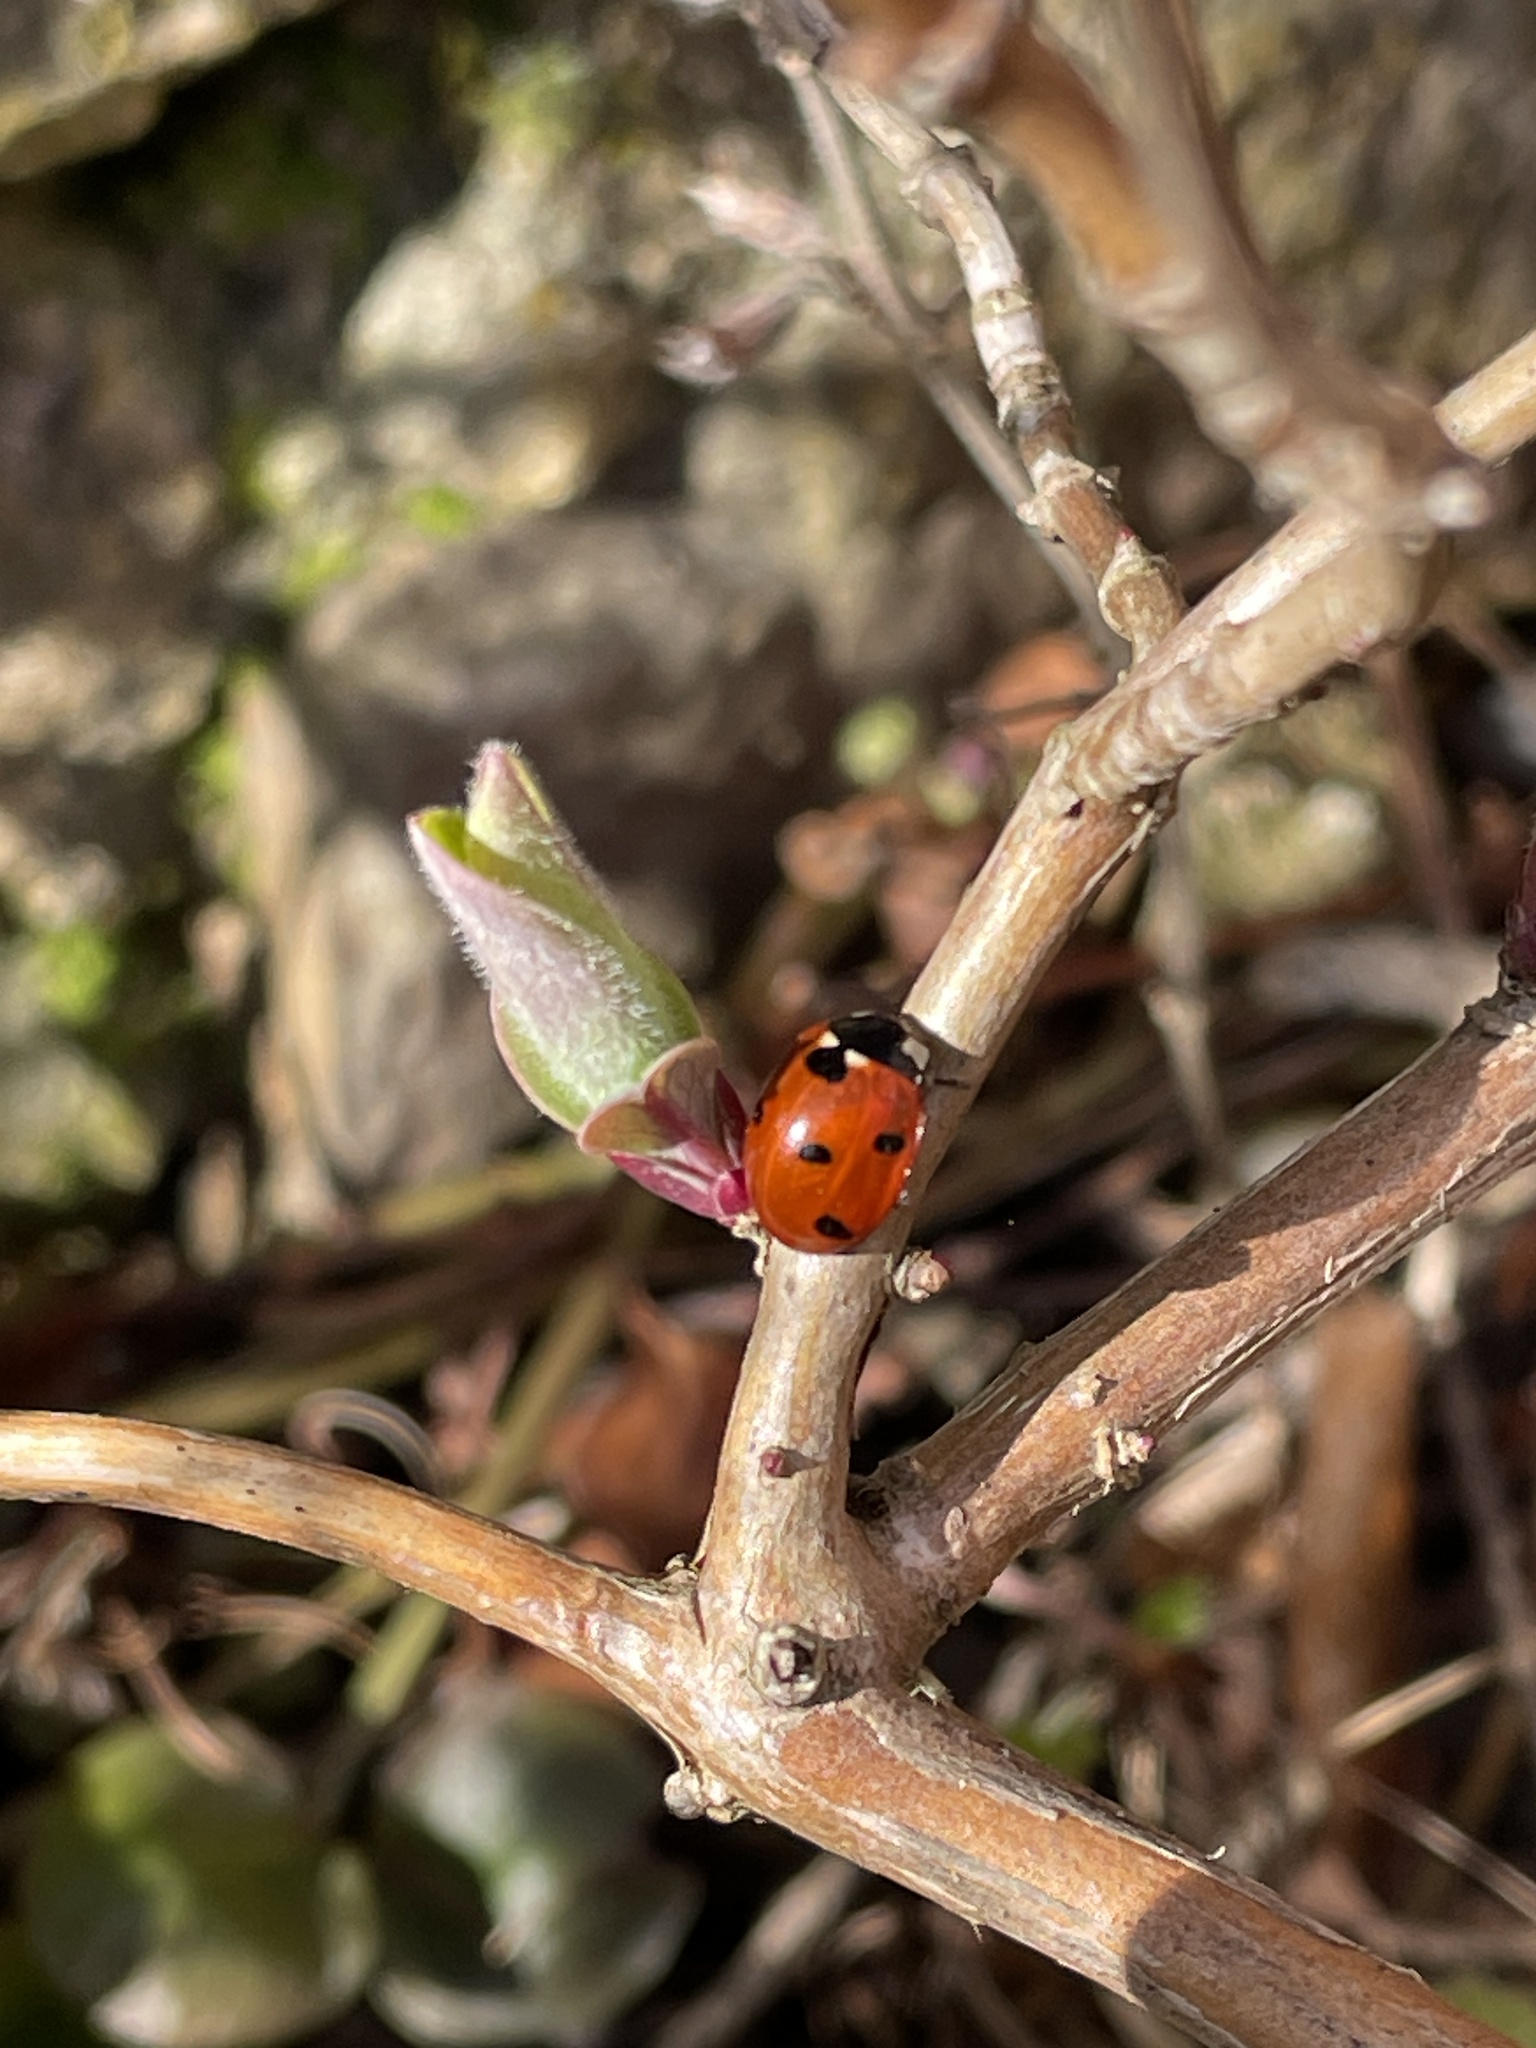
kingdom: Animalia
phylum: Arthropoda
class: Insecta
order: Coleoptera
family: Coccinellidae
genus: Coccinella
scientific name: Coccinella septempunctata
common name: Sevenspotted lady beetle
